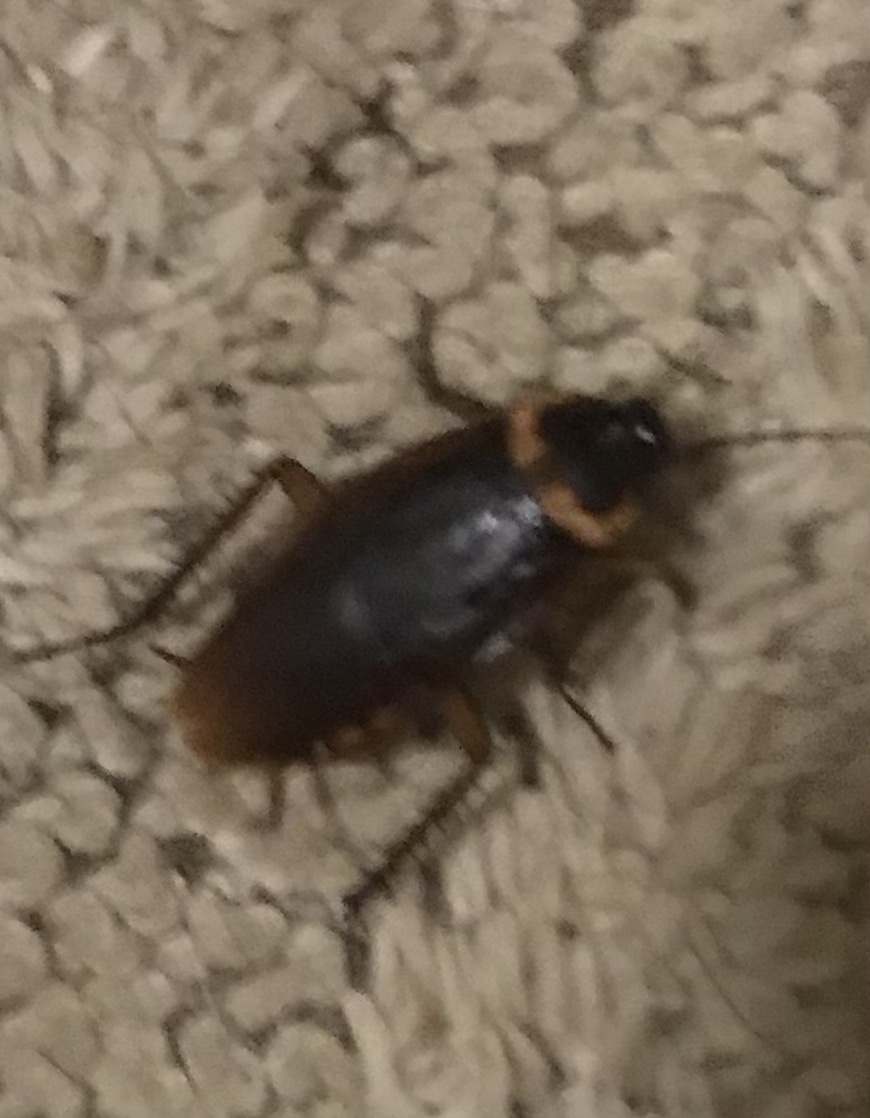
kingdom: Animalia
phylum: Arthropoda
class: Insecta
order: Blattodea
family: Blattidae
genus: Periplaneta
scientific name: Periplaneta americana
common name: American cockroach
